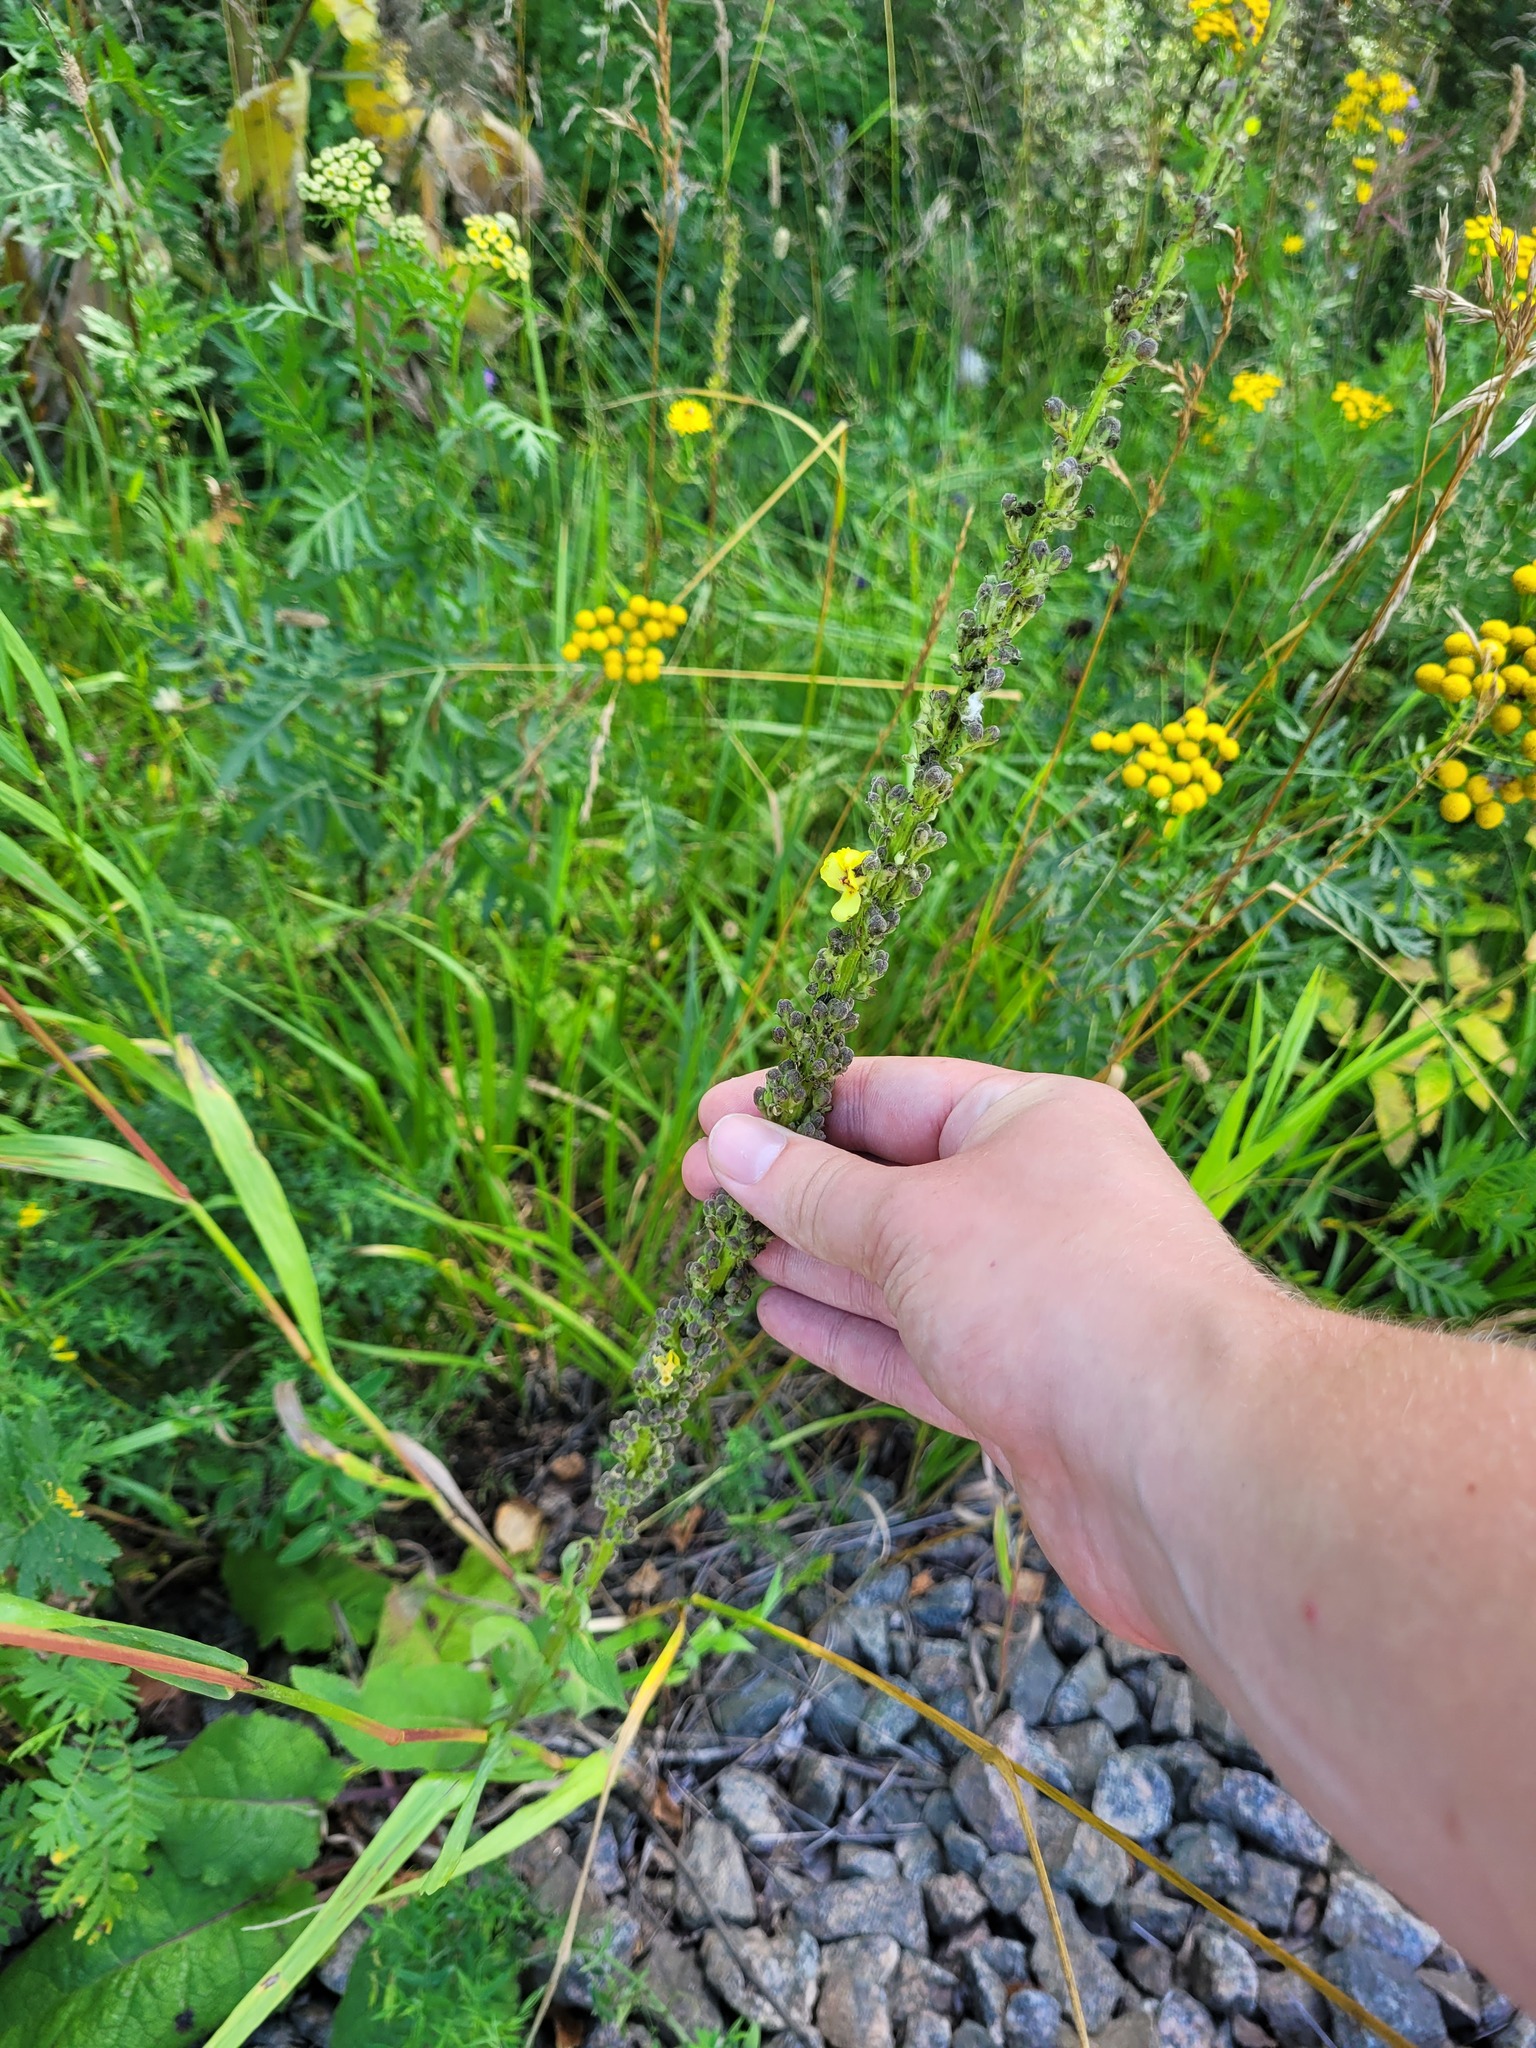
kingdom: Plantae
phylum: Tracheophyta
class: Magnoliopsida
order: Lamiales
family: Scrophulariaceae
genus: Verbascum
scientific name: Verbascum nigrum
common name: Dark mullein
